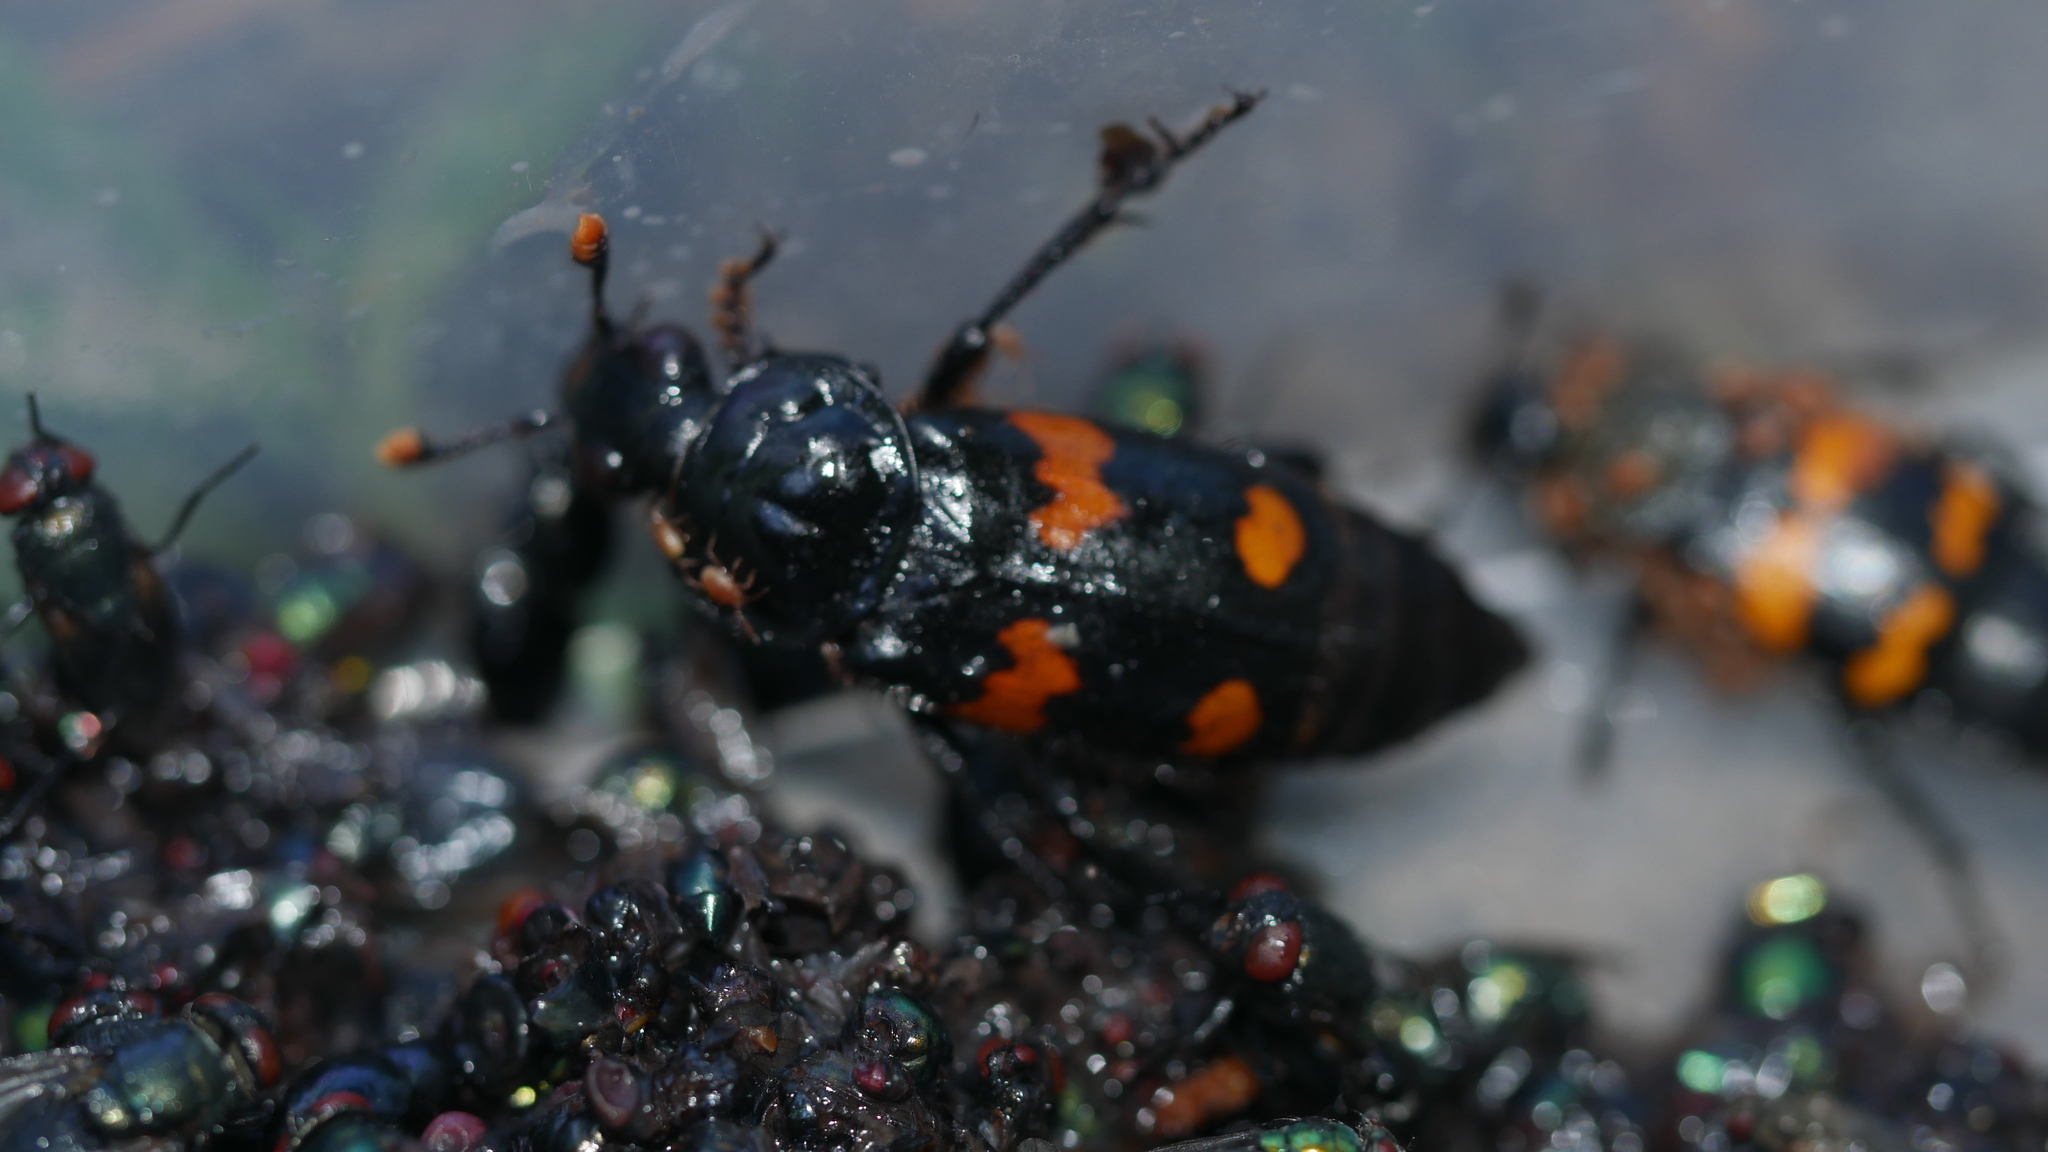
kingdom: Animalia
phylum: Arthropoda
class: Insecta
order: Coleoptera
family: Staphylinidae
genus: Nicrophorus
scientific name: Nicrophorus orbicollis
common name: Roundneck sexton beetle
